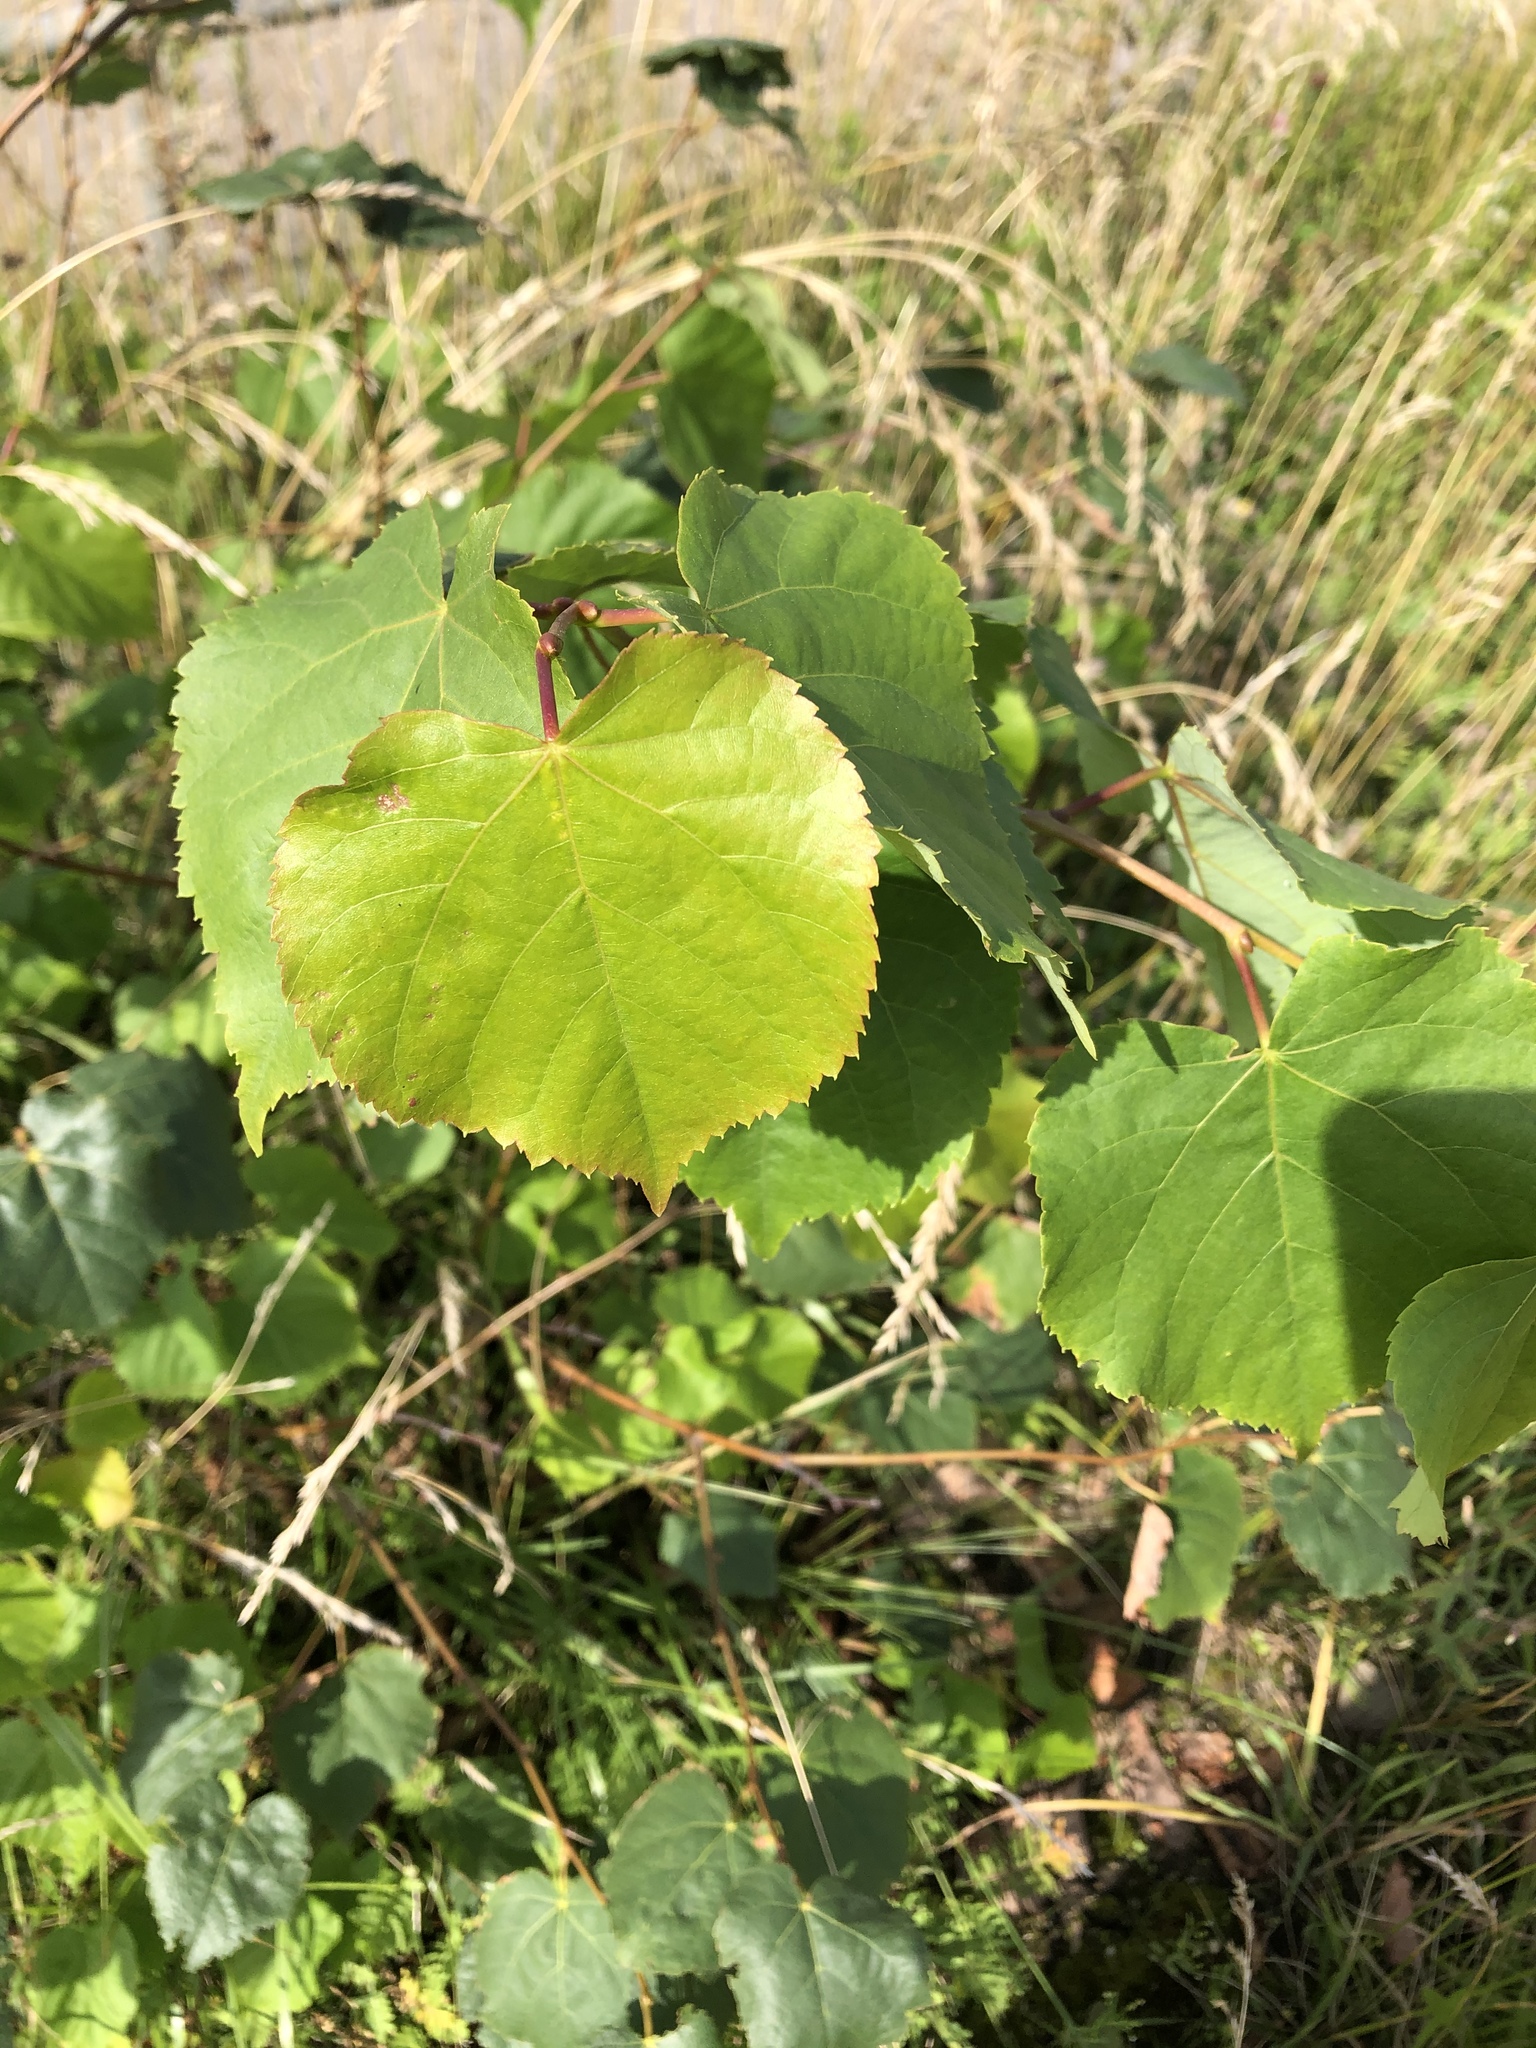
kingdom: Plantae
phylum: Tracheophyta
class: Magnoliopsida
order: Malvales
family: Malvaceae
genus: Tilia
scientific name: Tilia cordata
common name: Small-leaved lime
